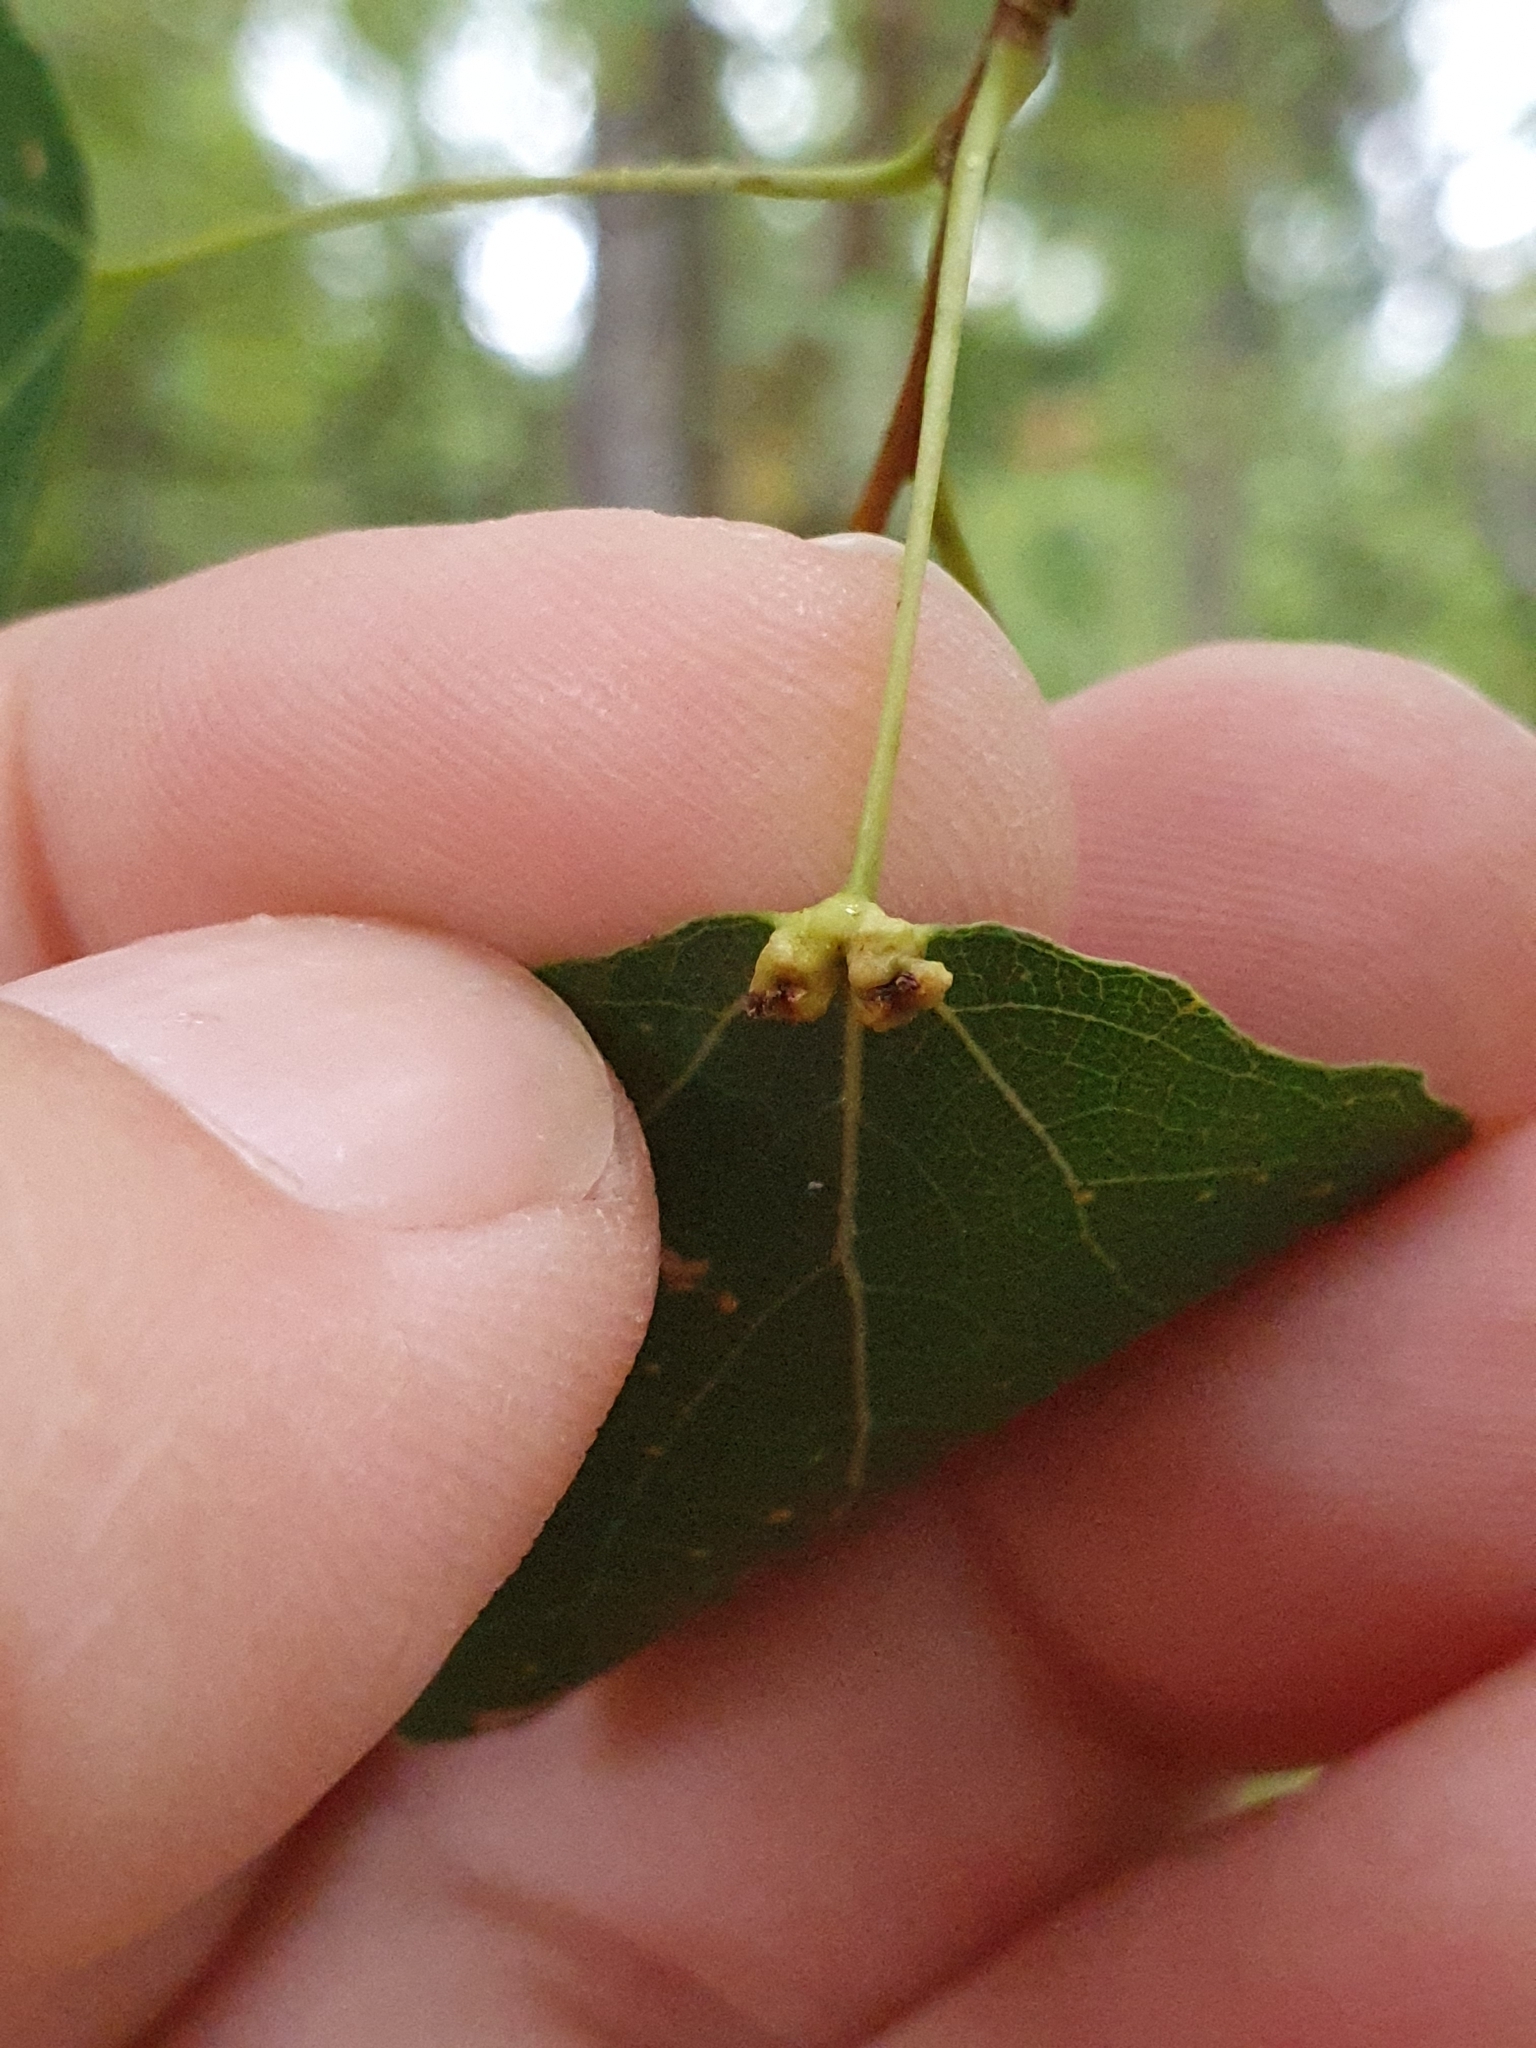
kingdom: Animalia
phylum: Arthropoda
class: Arachnida
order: Trombidiformes
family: Eriophyidae
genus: Eriophyes
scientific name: Eriophyes diversipunctatus
